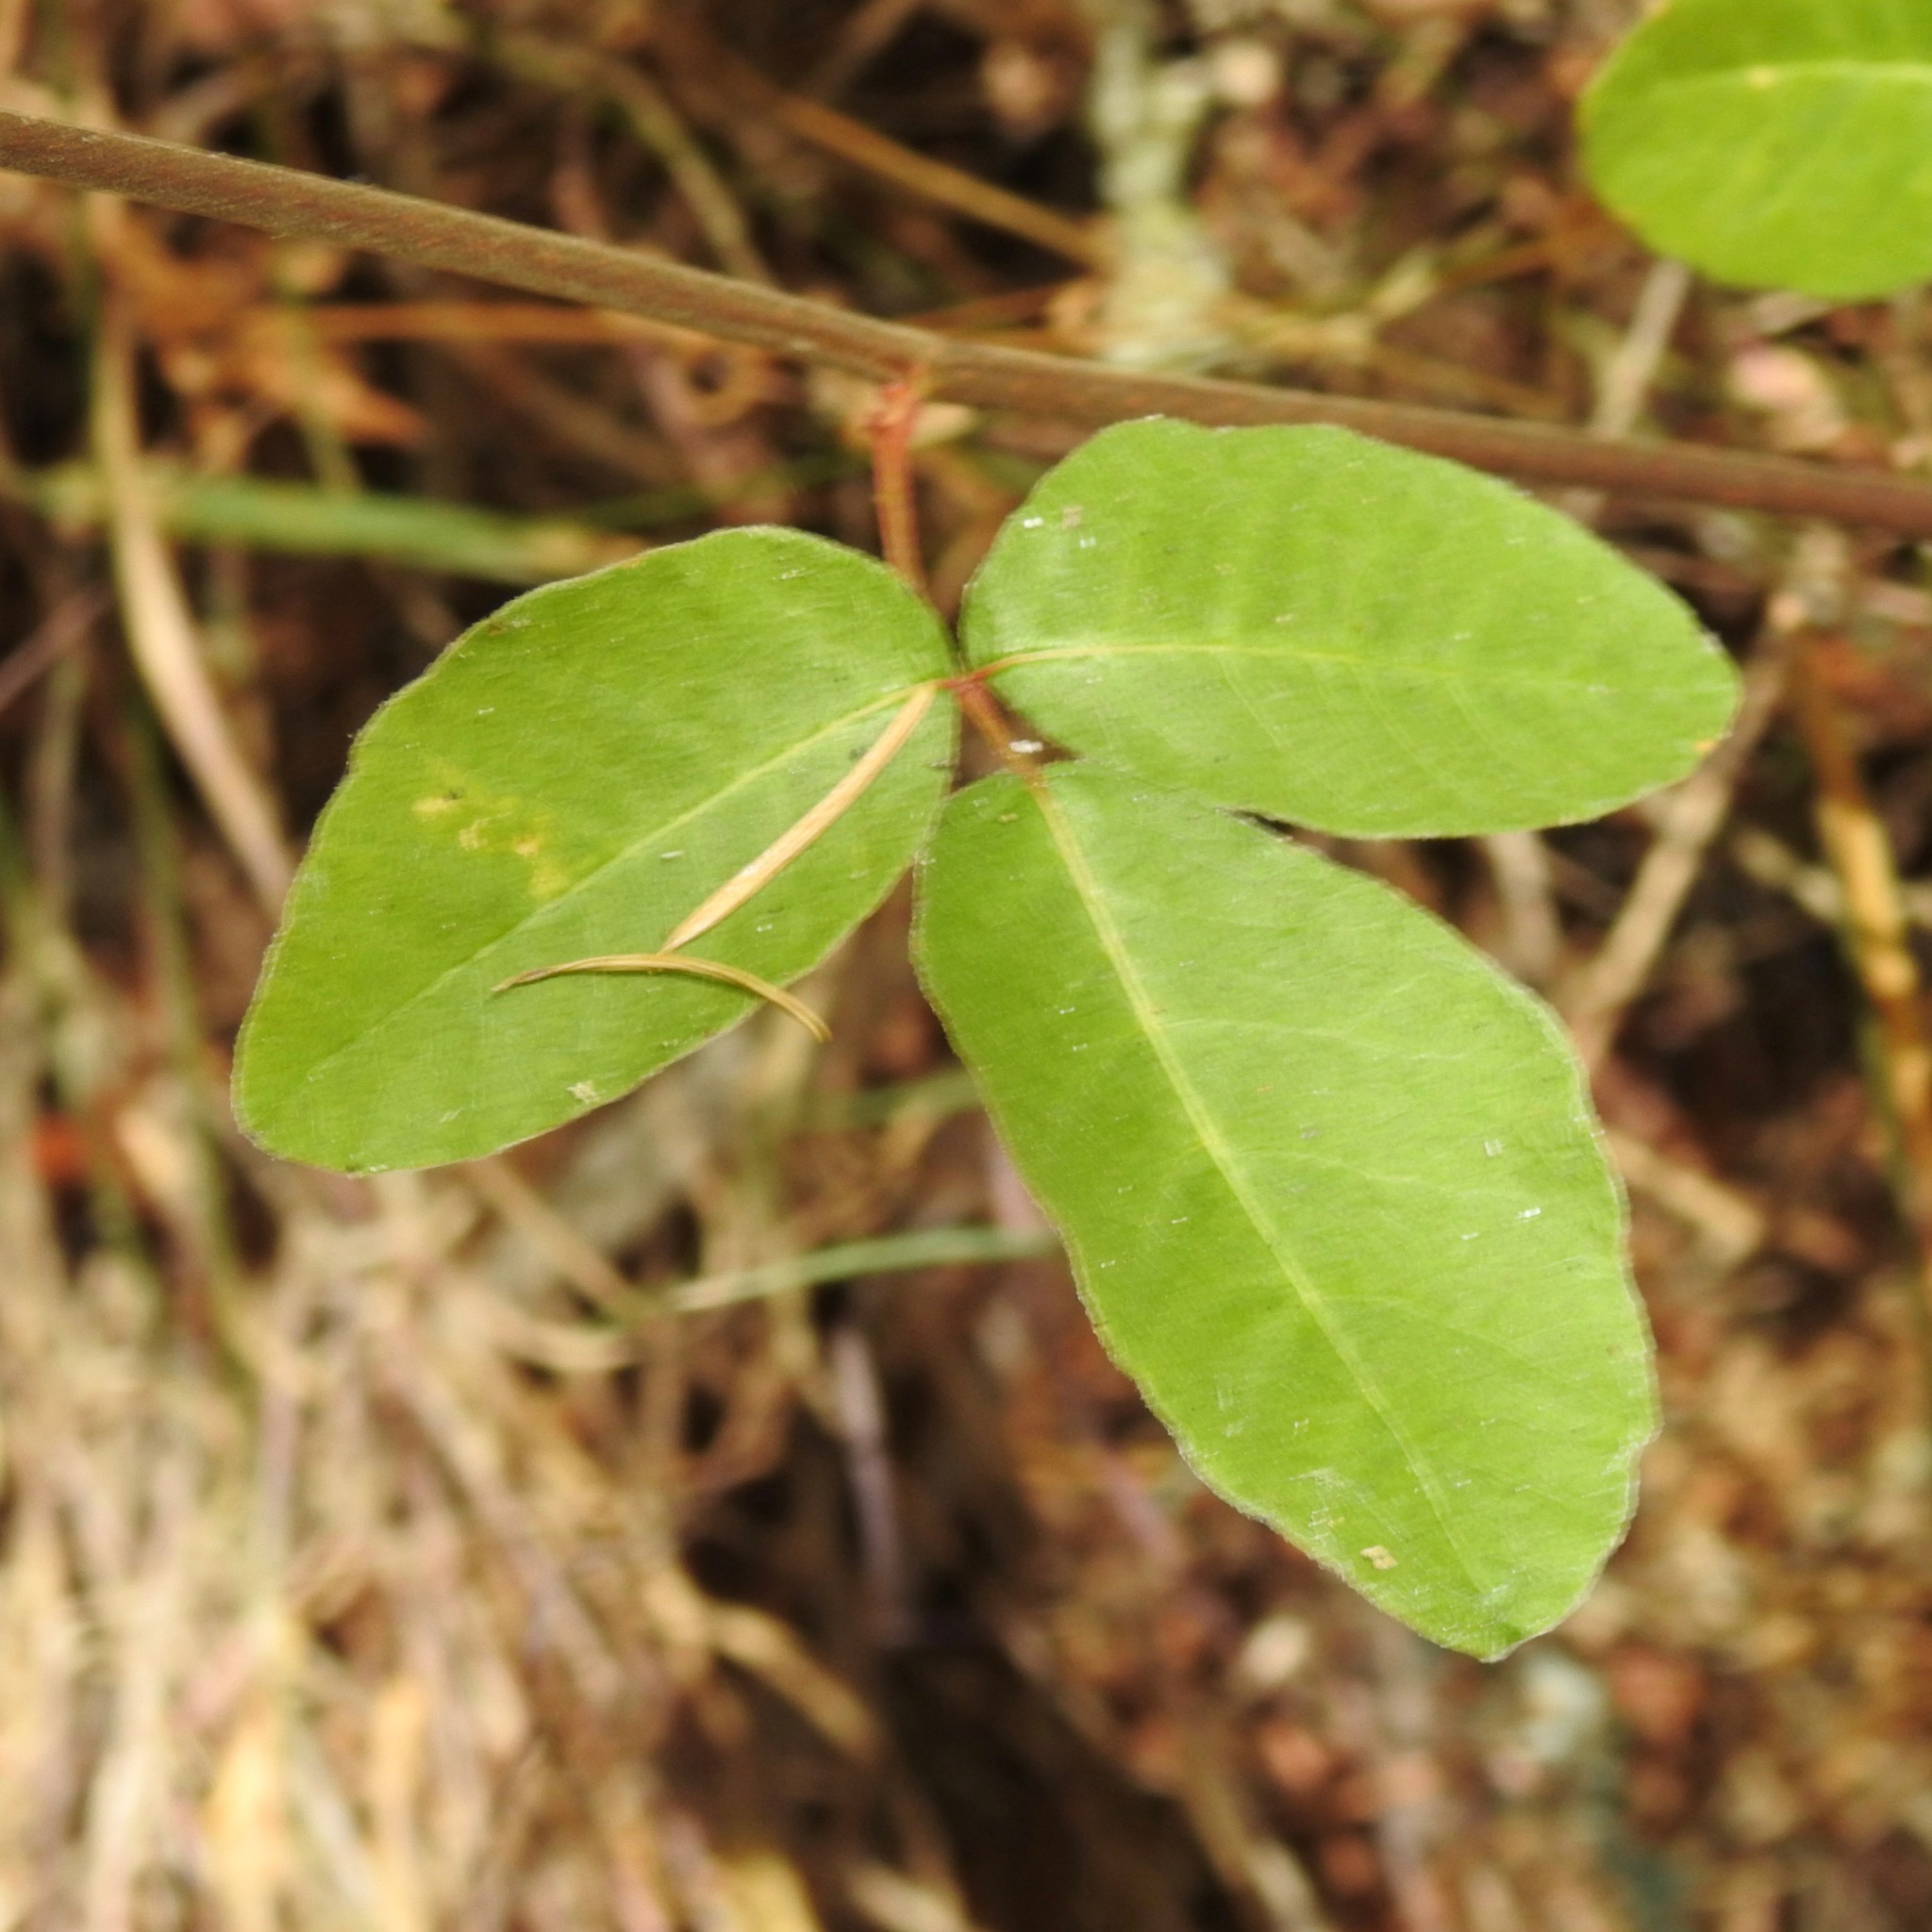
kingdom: Plantae
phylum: Tracheophyta
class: Magnoliopsida
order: Sapindales
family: Anacardiaceae
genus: Toxicodendron
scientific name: Toxicodendron diversilobum
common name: Pacific poison-oak
